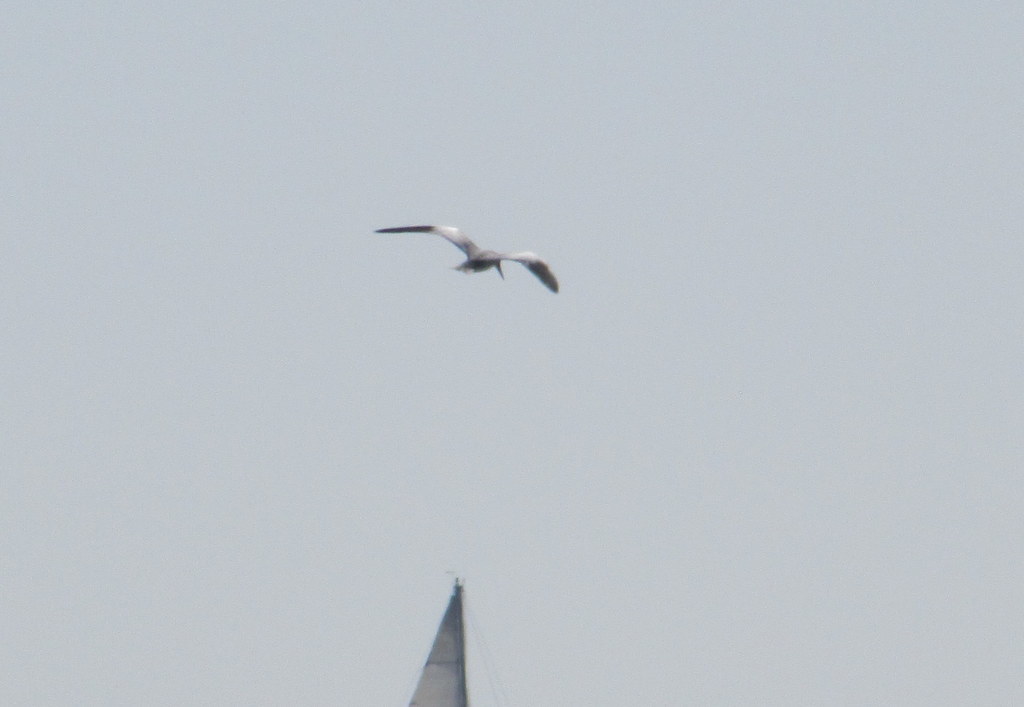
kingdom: Animalia
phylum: Chordata
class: Aves
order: Charadriiformes
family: Laridae
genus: Phaetusa
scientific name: Phaetusa simplex
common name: Large-billed tern
